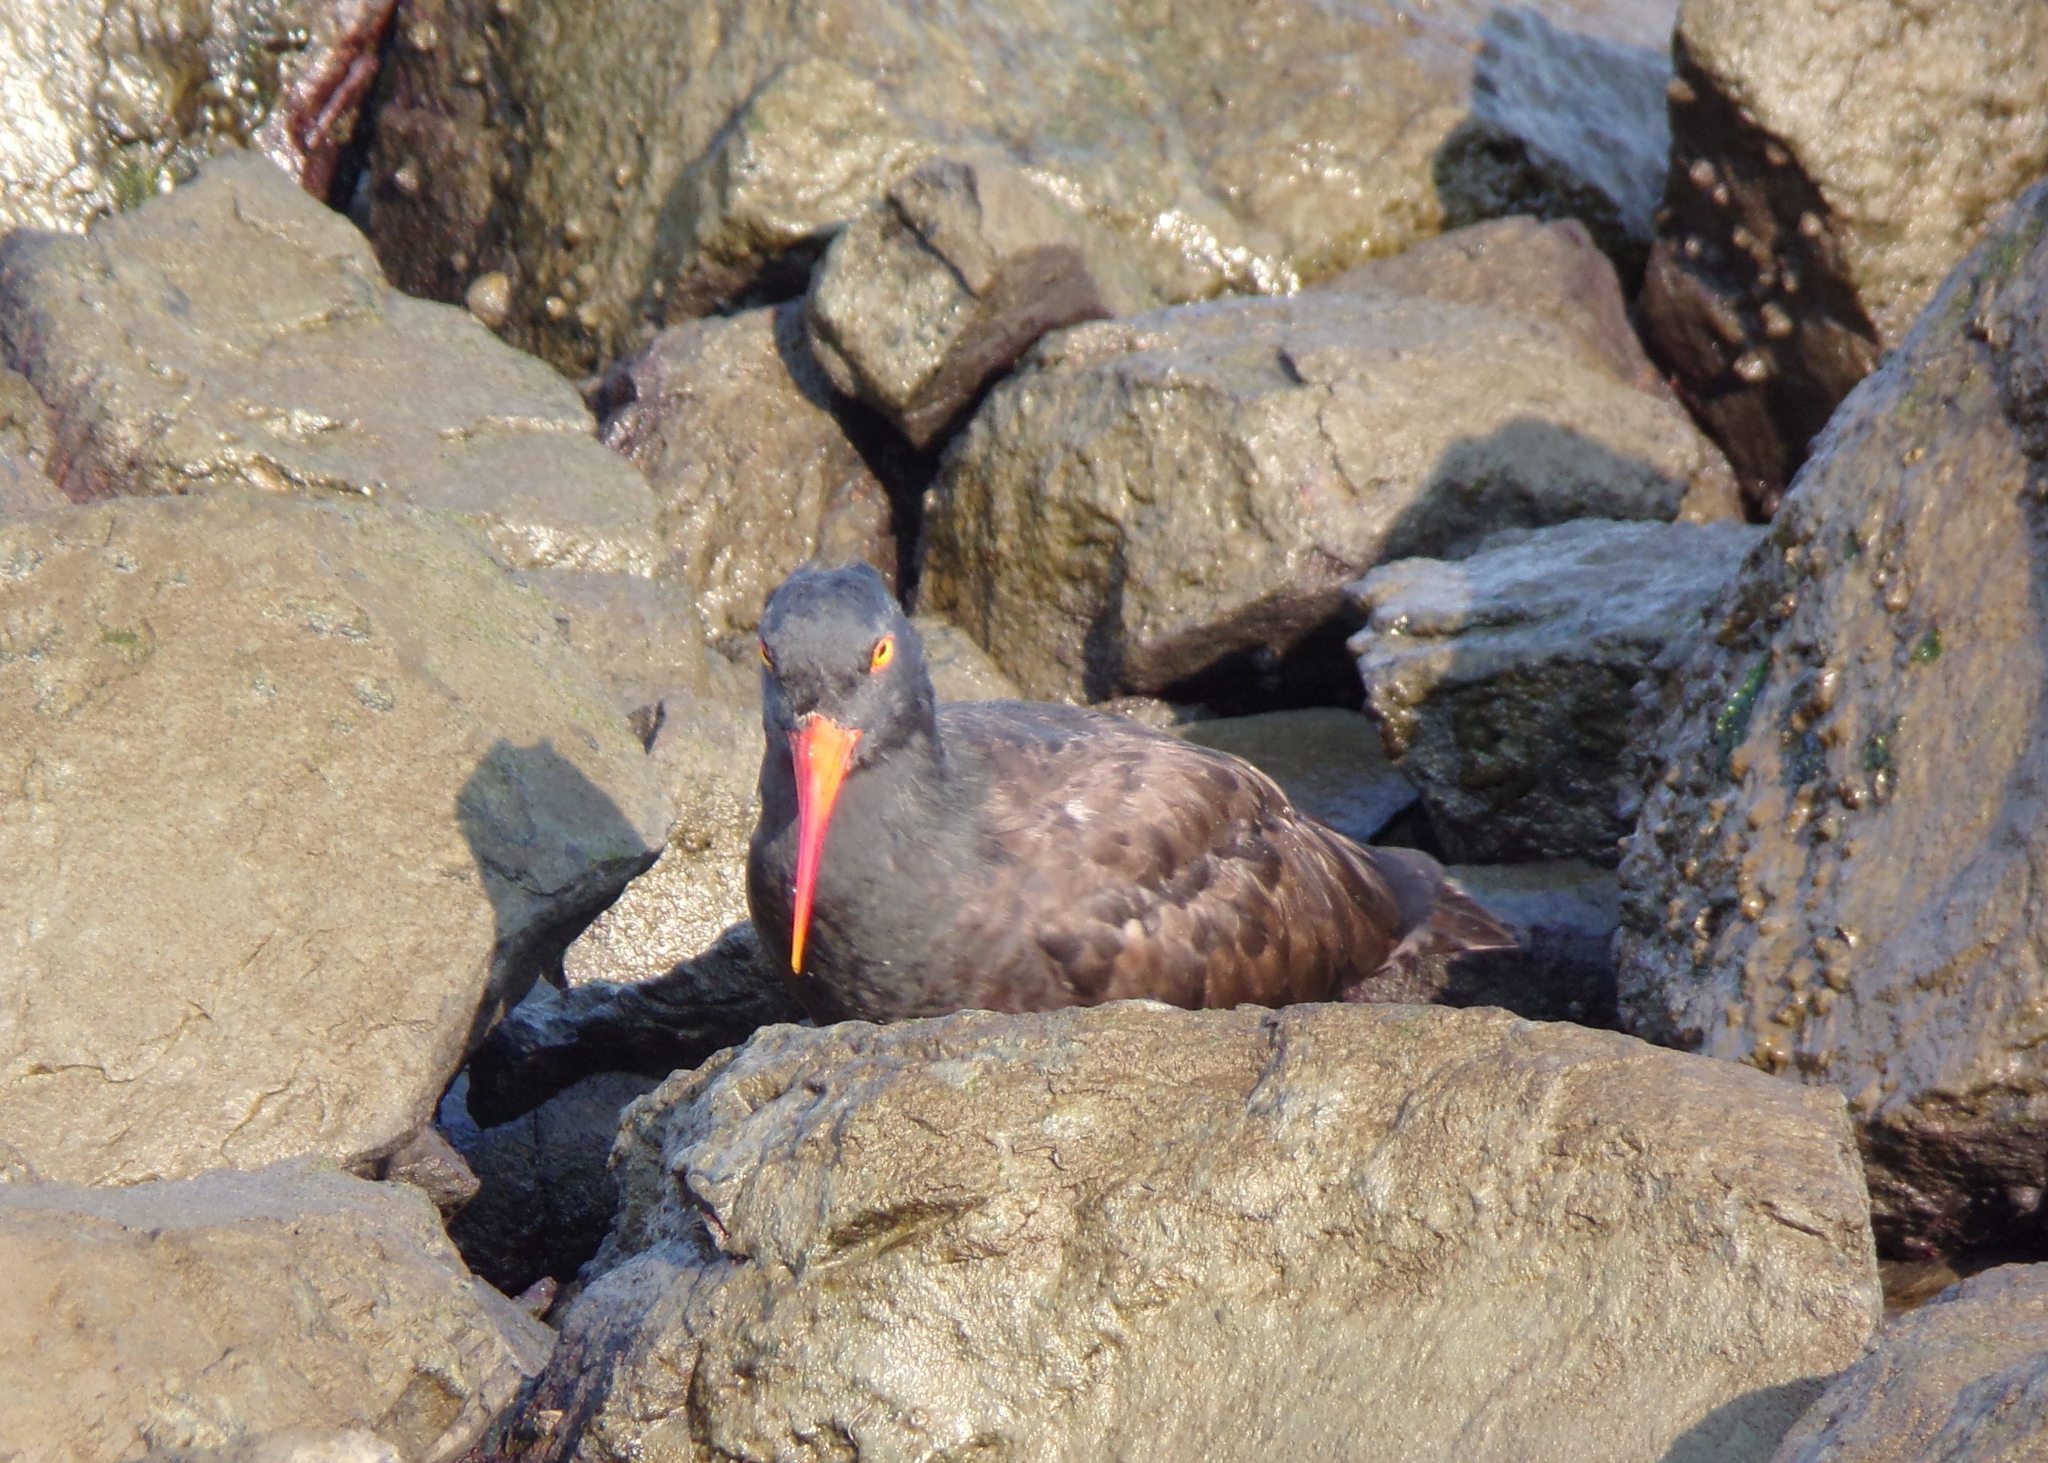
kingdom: Animalia
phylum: Chordata
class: Aves
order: Charadriiformes
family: Haematopodidae
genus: Haematopus
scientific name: Haematopus bachmani
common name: Black oystercatcher
